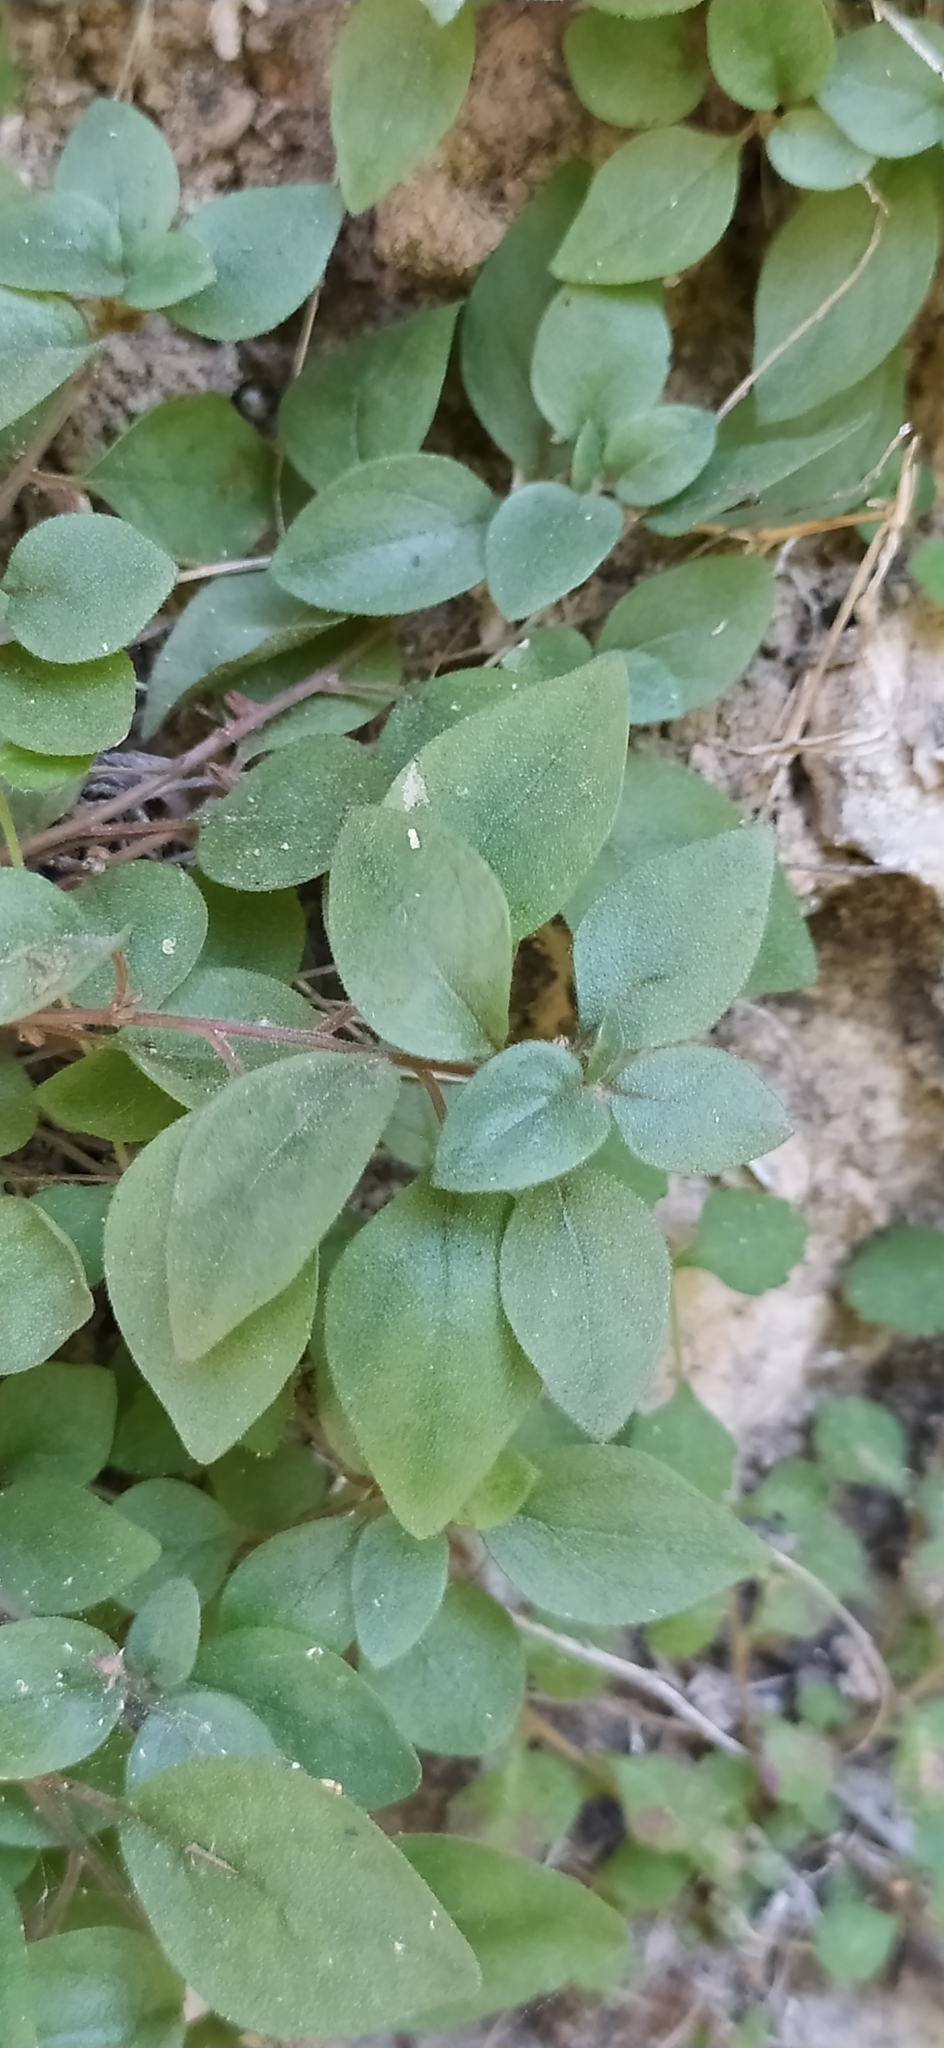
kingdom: Plantae
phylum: Tracheophyta
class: Magnoliopsida
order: Rosales
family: Urticaceae
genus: Parietaria
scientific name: Parietaria lusitanica
